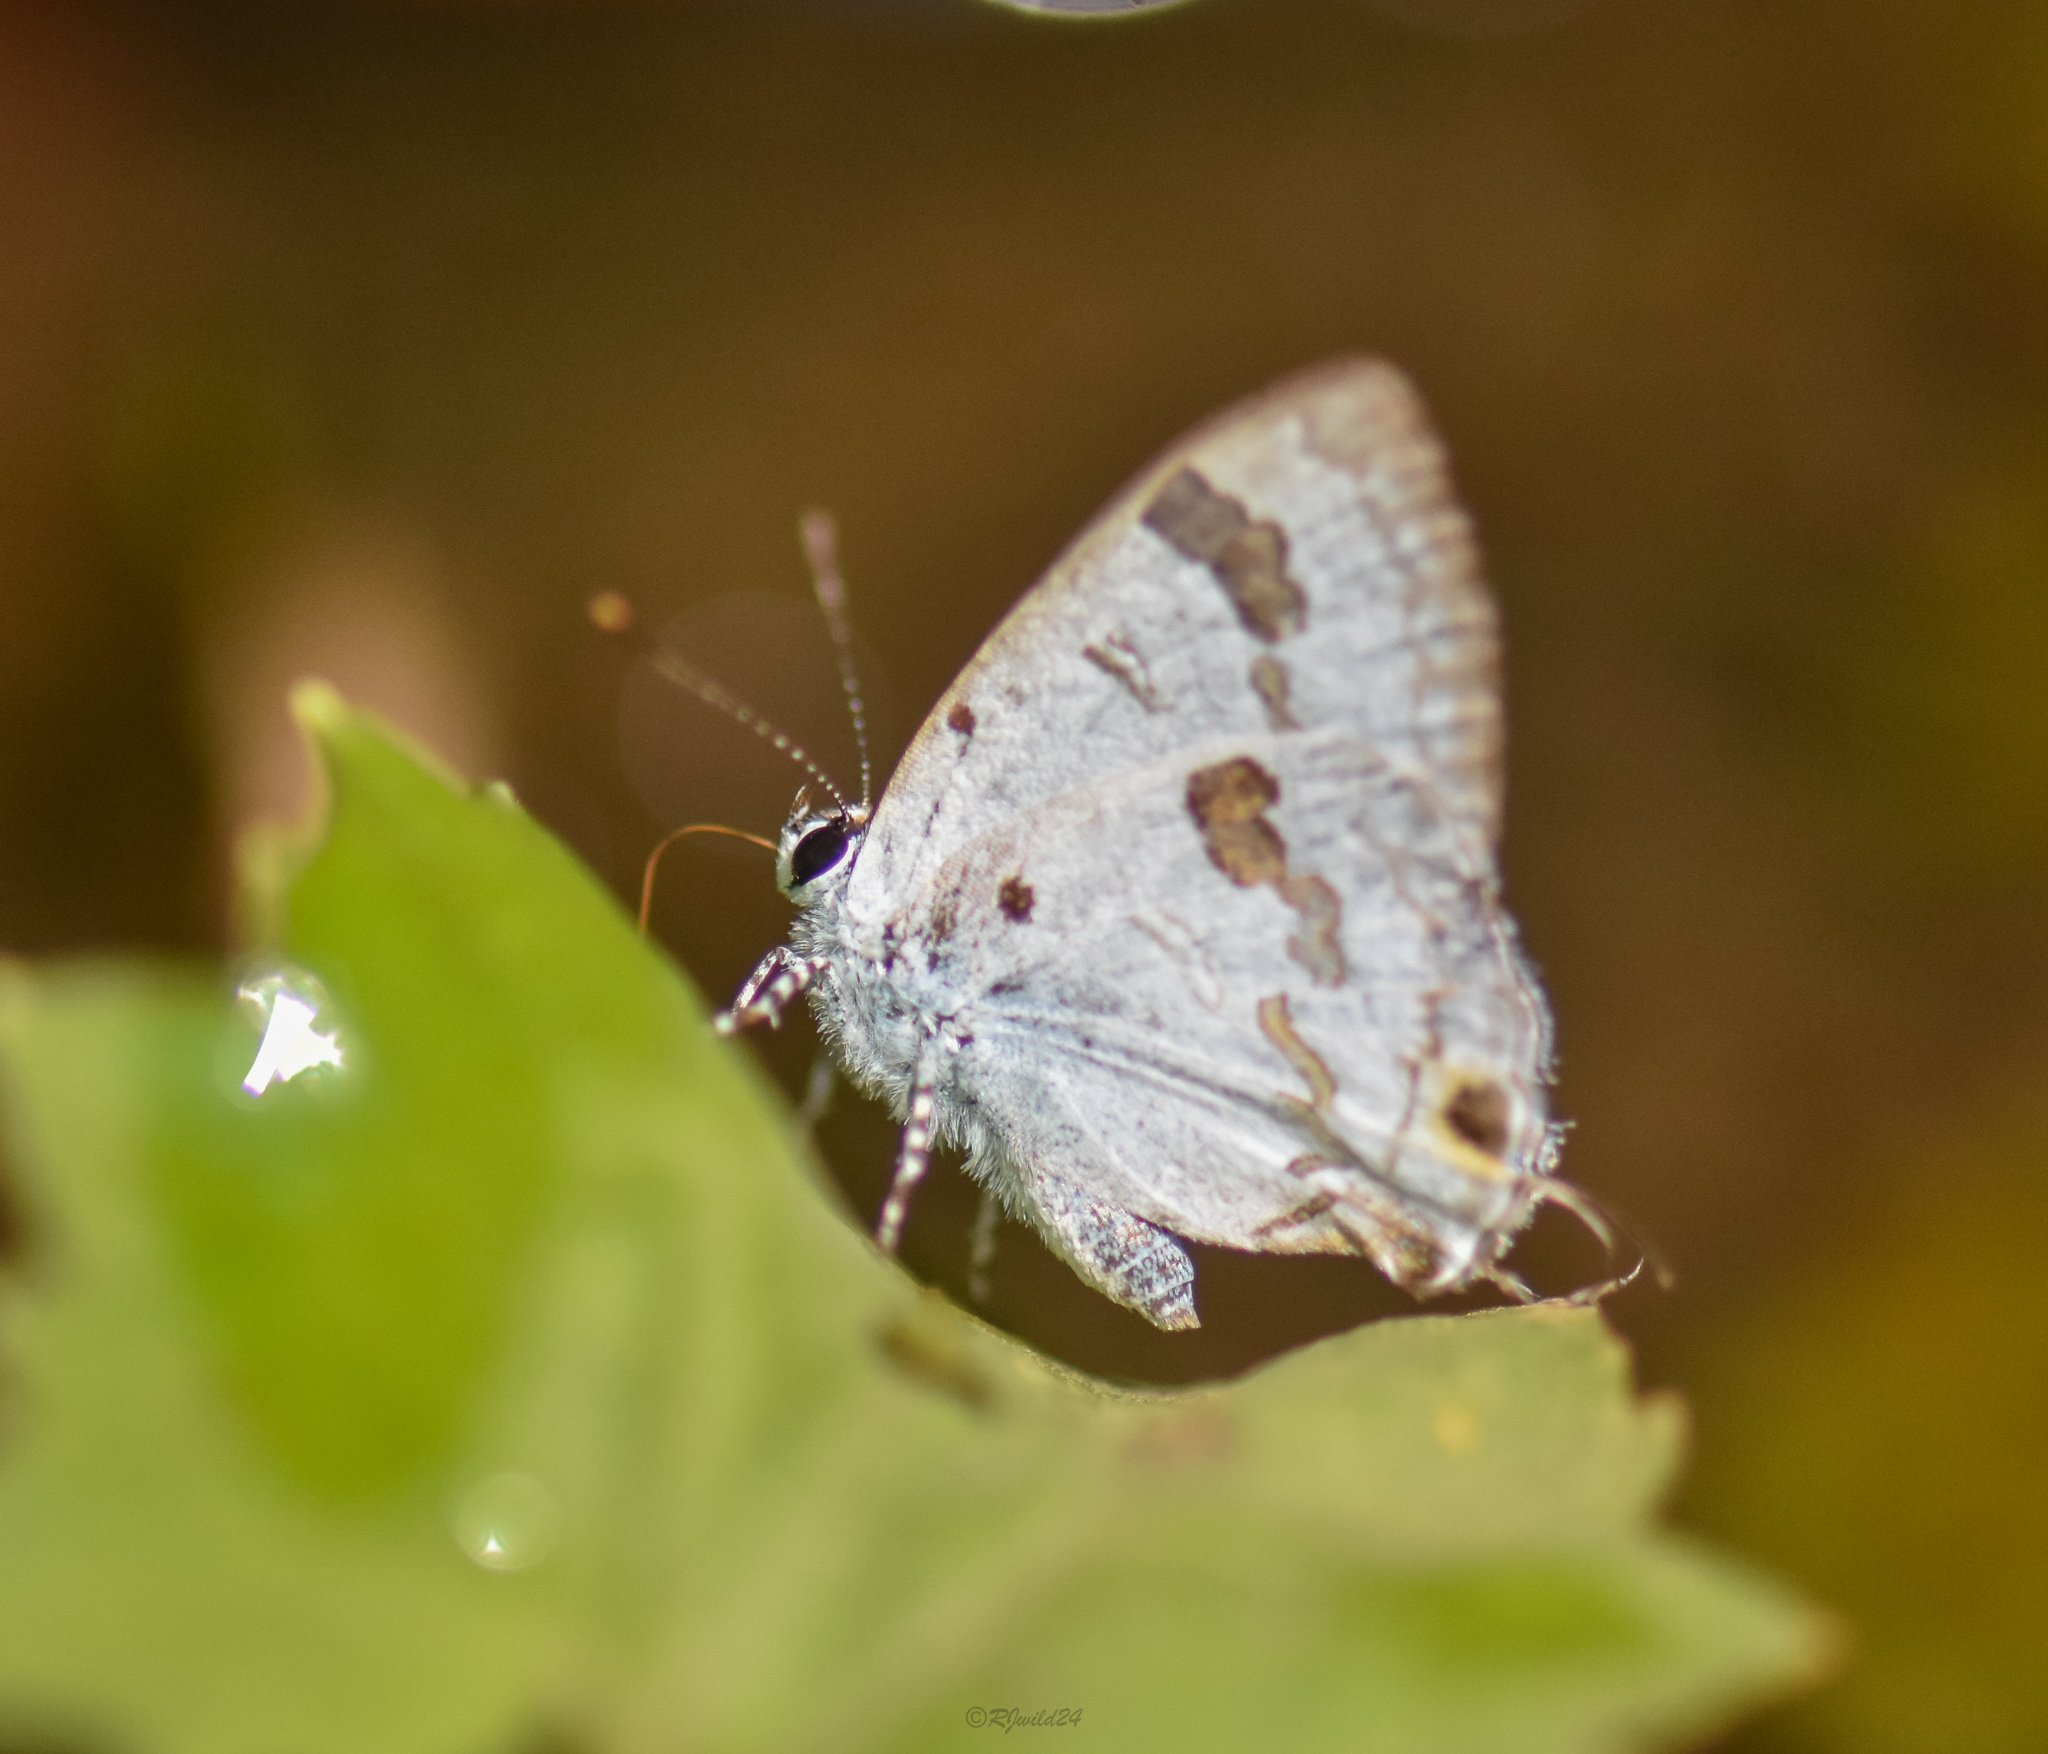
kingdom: Animalia
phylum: Arthropoda
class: Insecta
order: Lepidoptera
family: Lycaenidae
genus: Chliaria
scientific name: Chliaria othona
